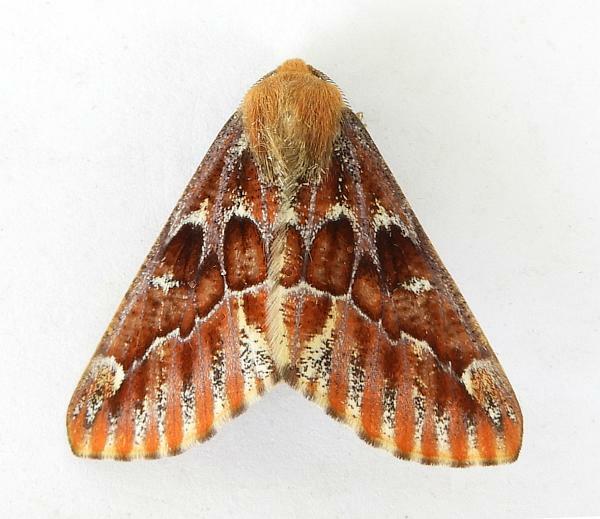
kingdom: Animalia
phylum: Arthropoda
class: Insecta
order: Lepidoptera
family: Geometridae
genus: Caripeta
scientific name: Caripeta suffusata
